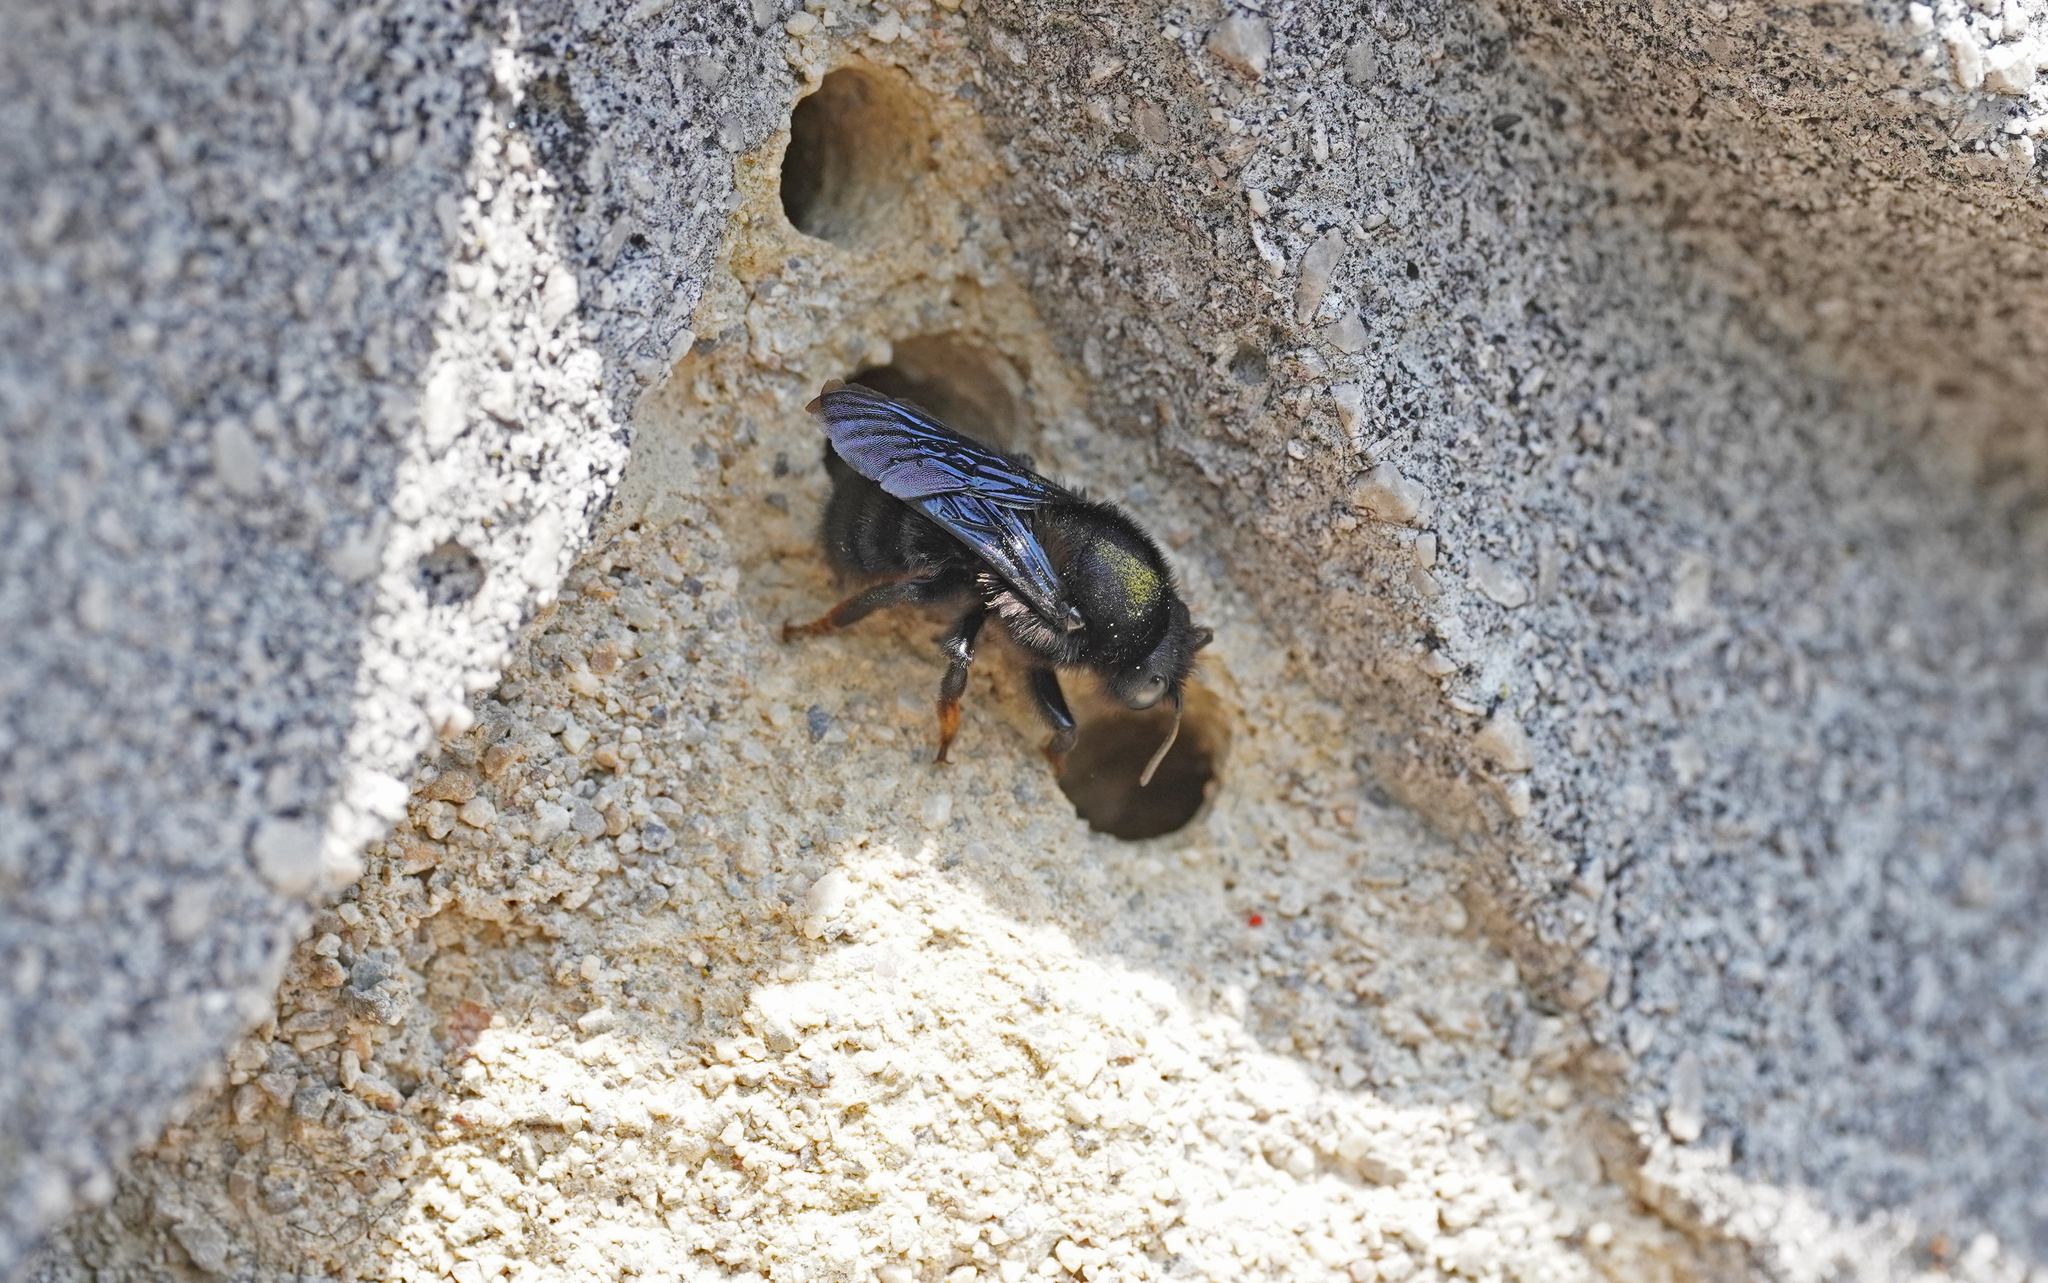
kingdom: Animalia
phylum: Arthropoda
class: Insecta
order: Hymenoptera
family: Megachilidae
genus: Megachile
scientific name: Megachile parietina
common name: Black mud bee
